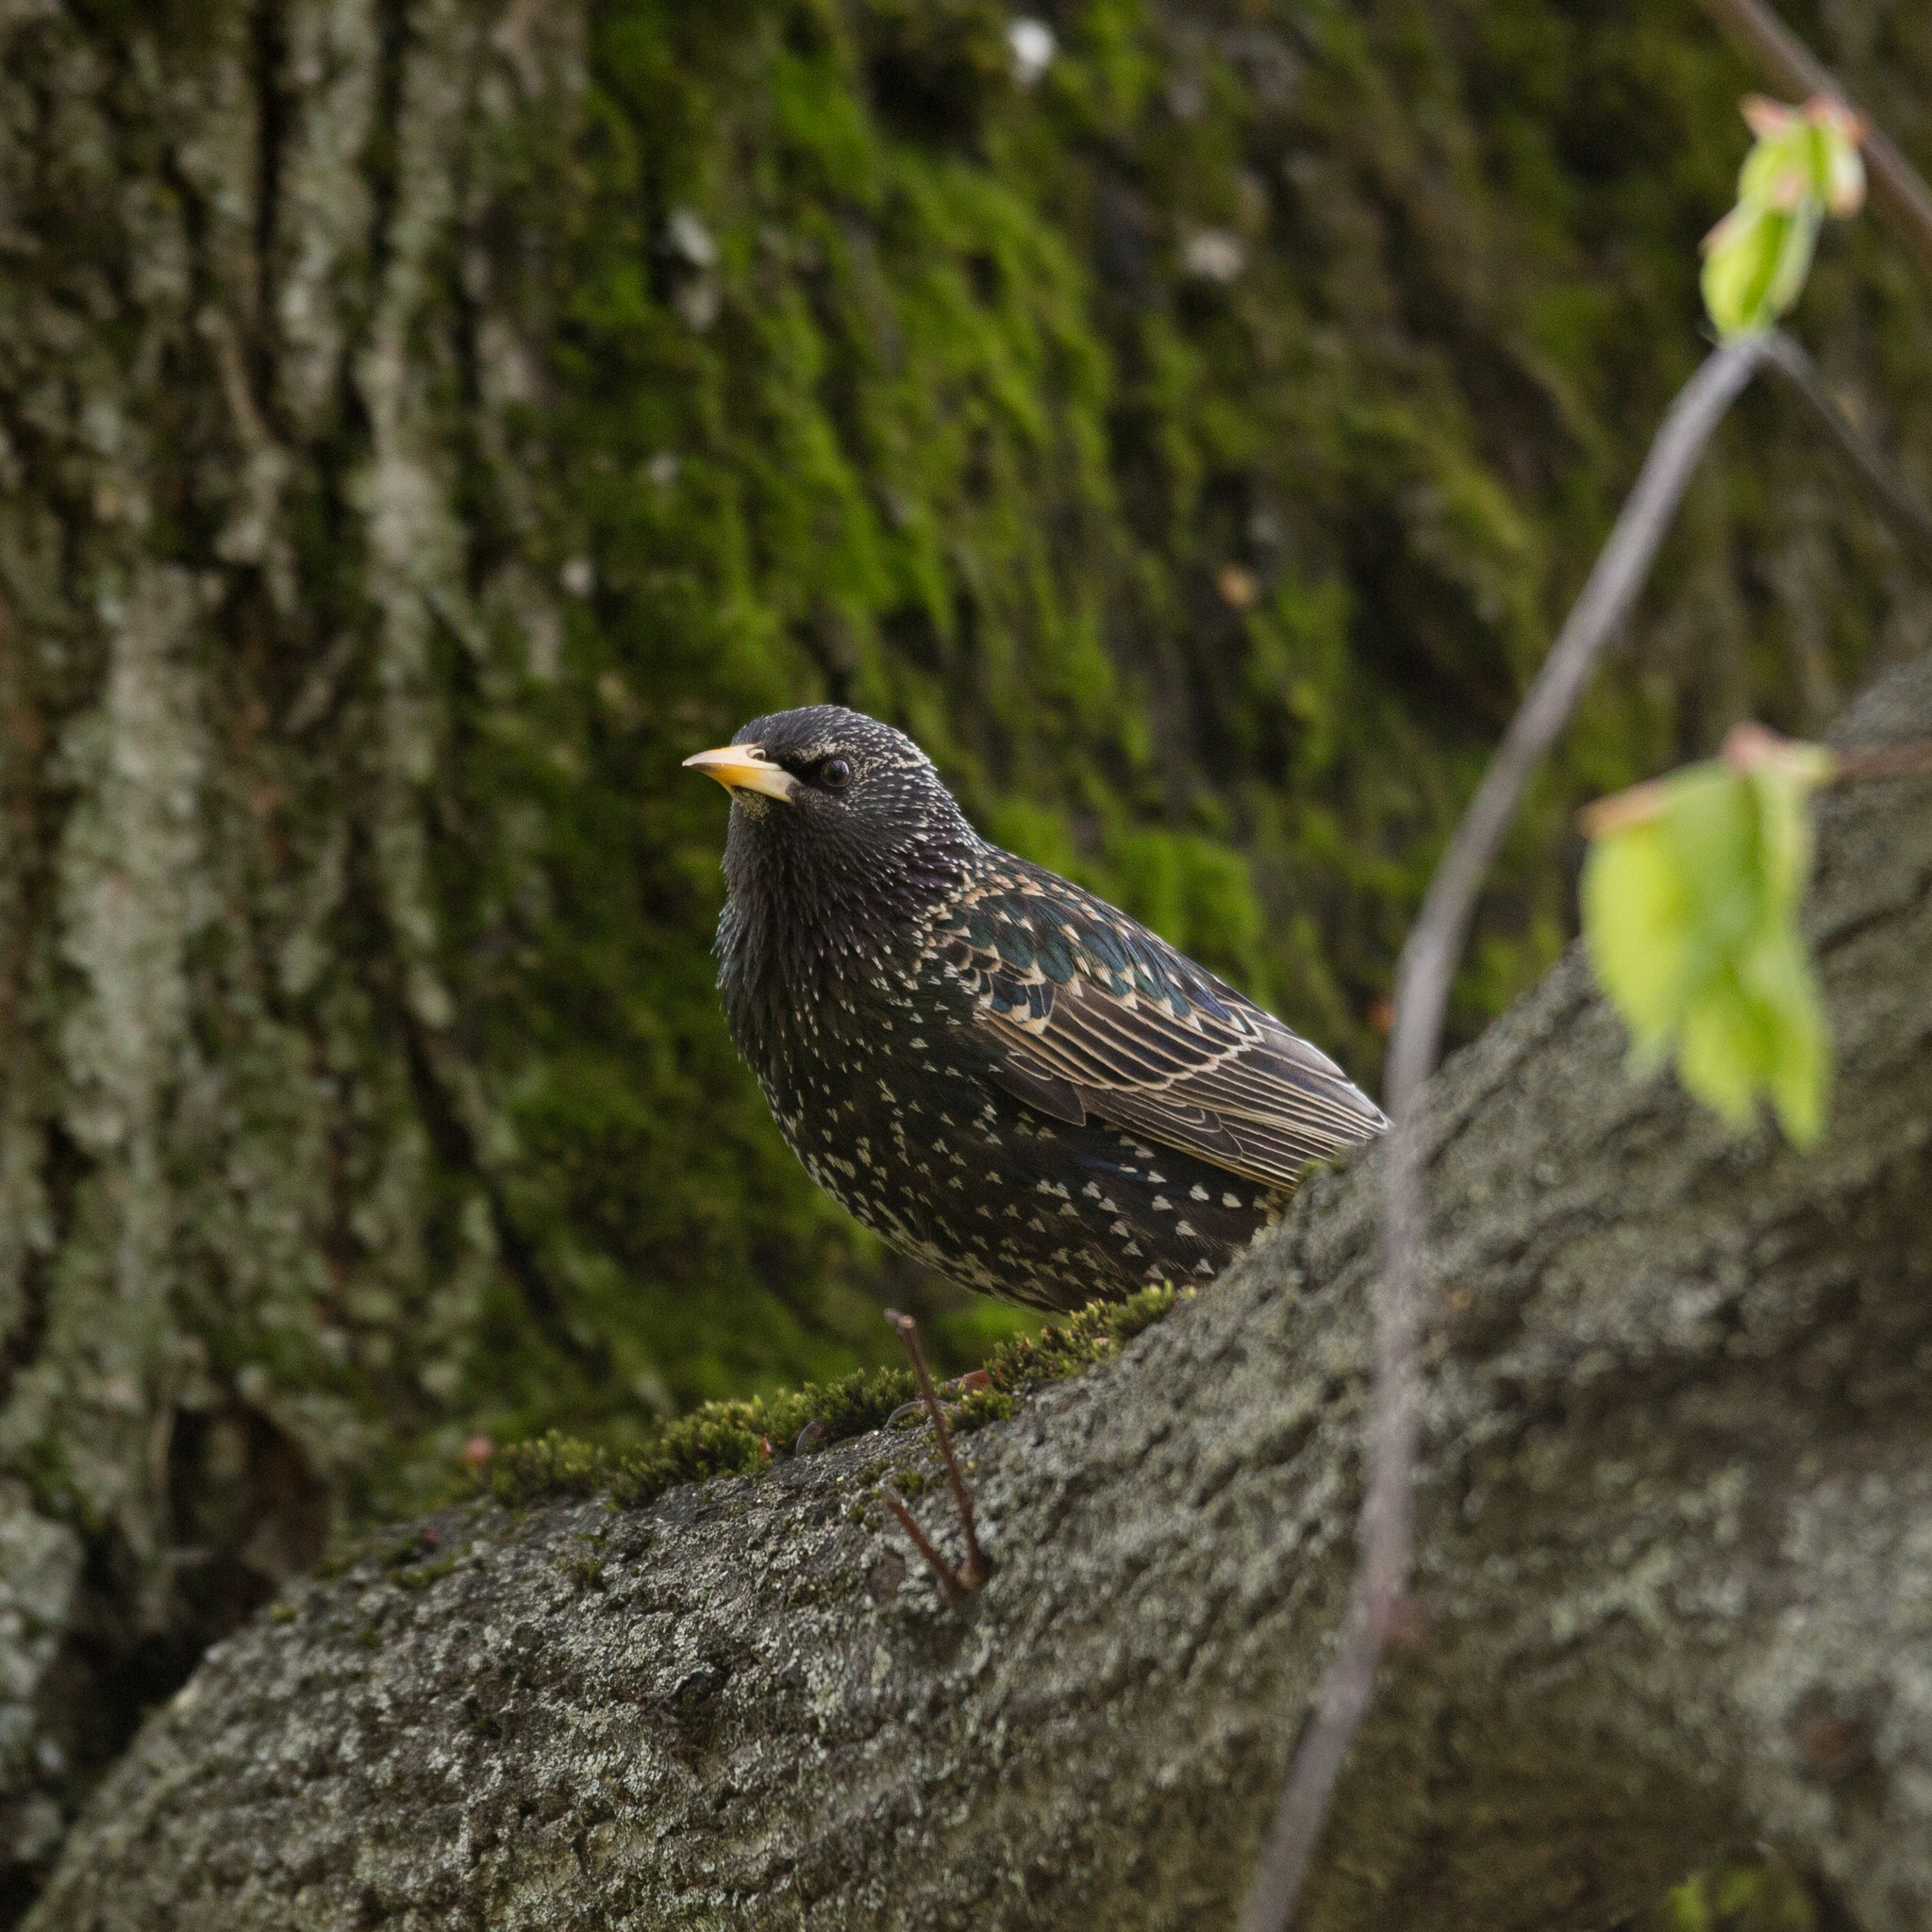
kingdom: Animalia
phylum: Chordata
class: Aves
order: Passeriformes
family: Sturnidae
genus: Sturnus
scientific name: Sturnus vulgaris
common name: Common starling
